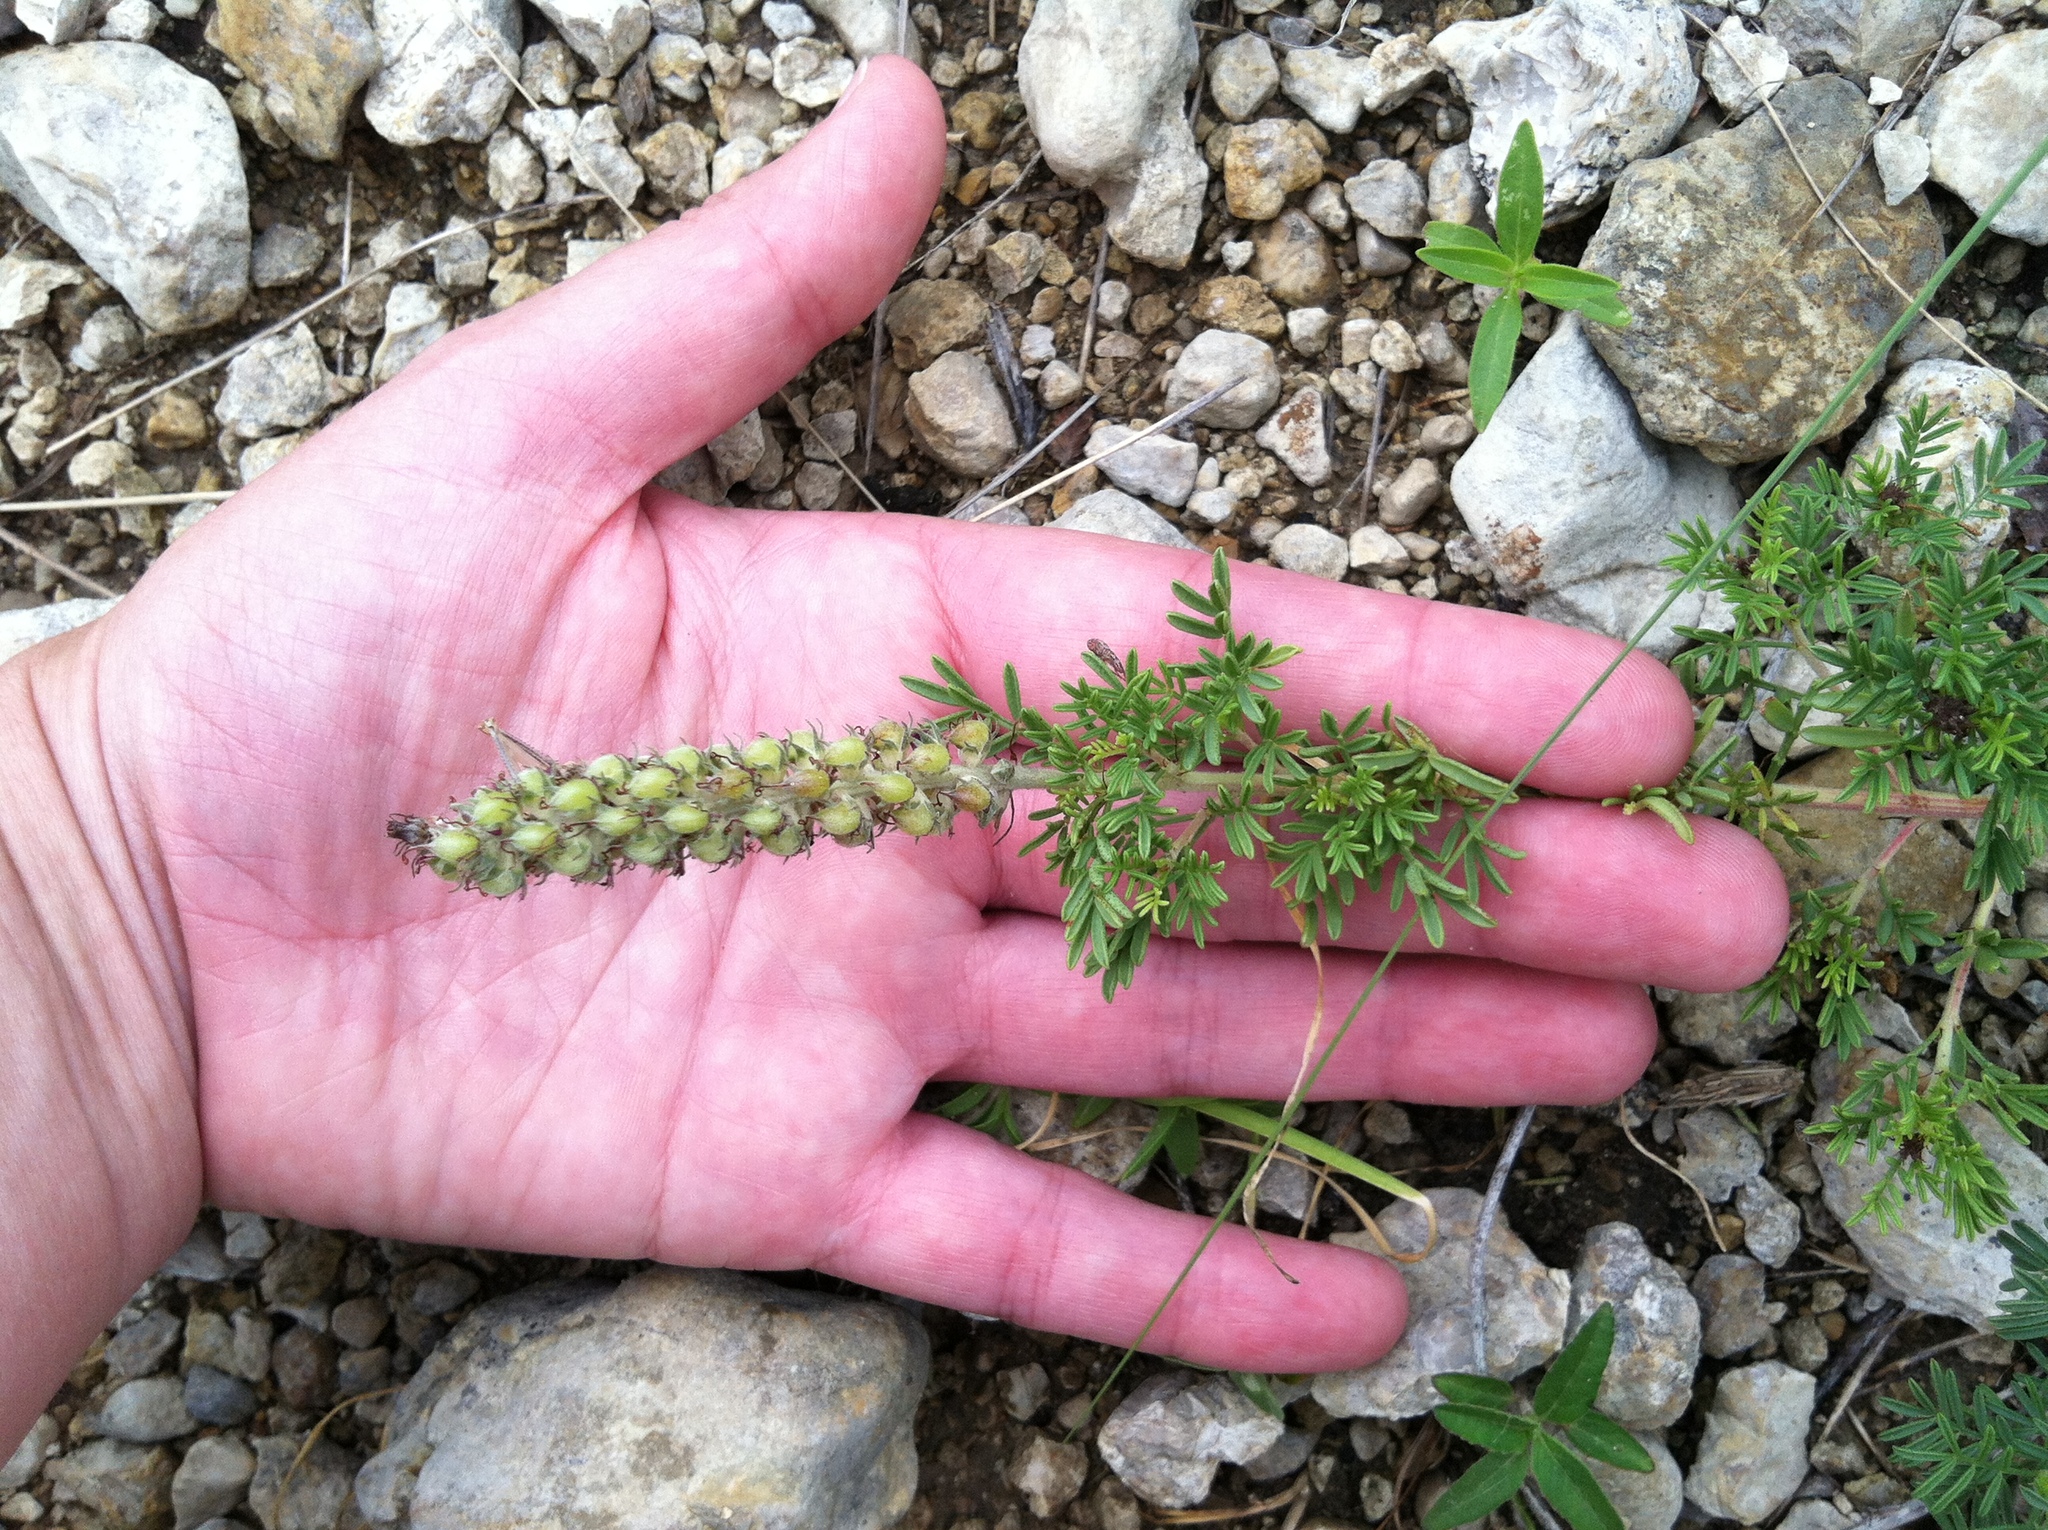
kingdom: Plantae
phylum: Tracheophyta
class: Magnoliopsida
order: Fabales
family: Fabaceae
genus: Dalea
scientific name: Dalea reverchonii
